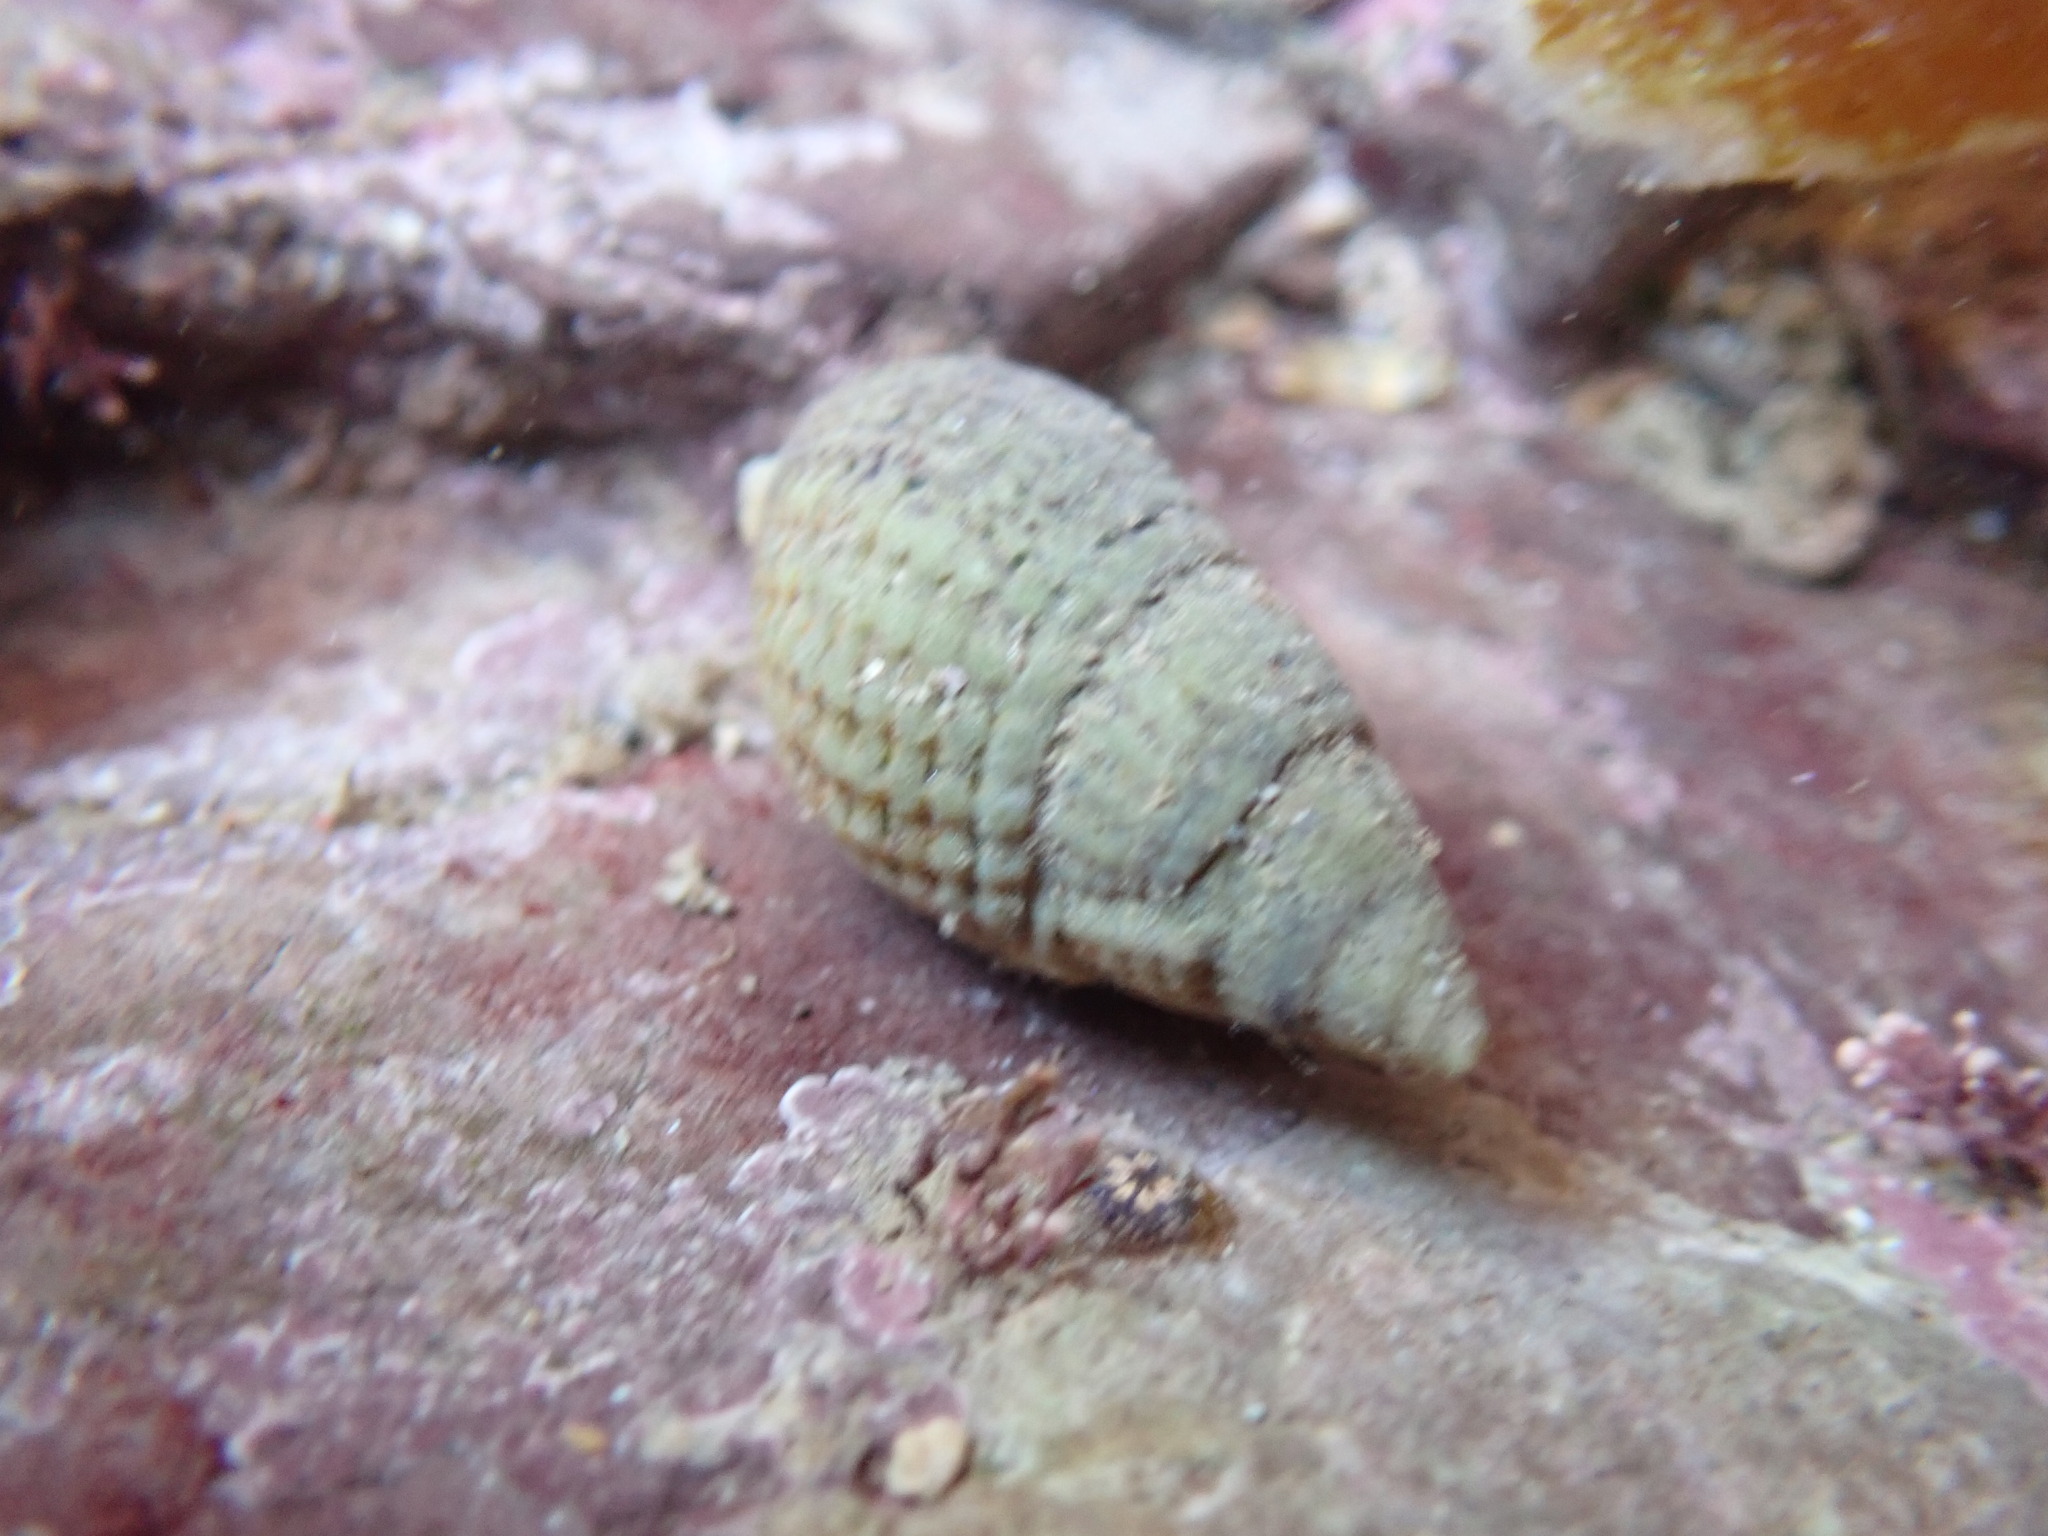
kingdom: Animalia
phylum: Mollusca
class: Gastropoda
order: Neogastropoda
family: Nassariidae
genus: Tritia
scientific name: Tritia reticulata
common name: Netted dog whelk
